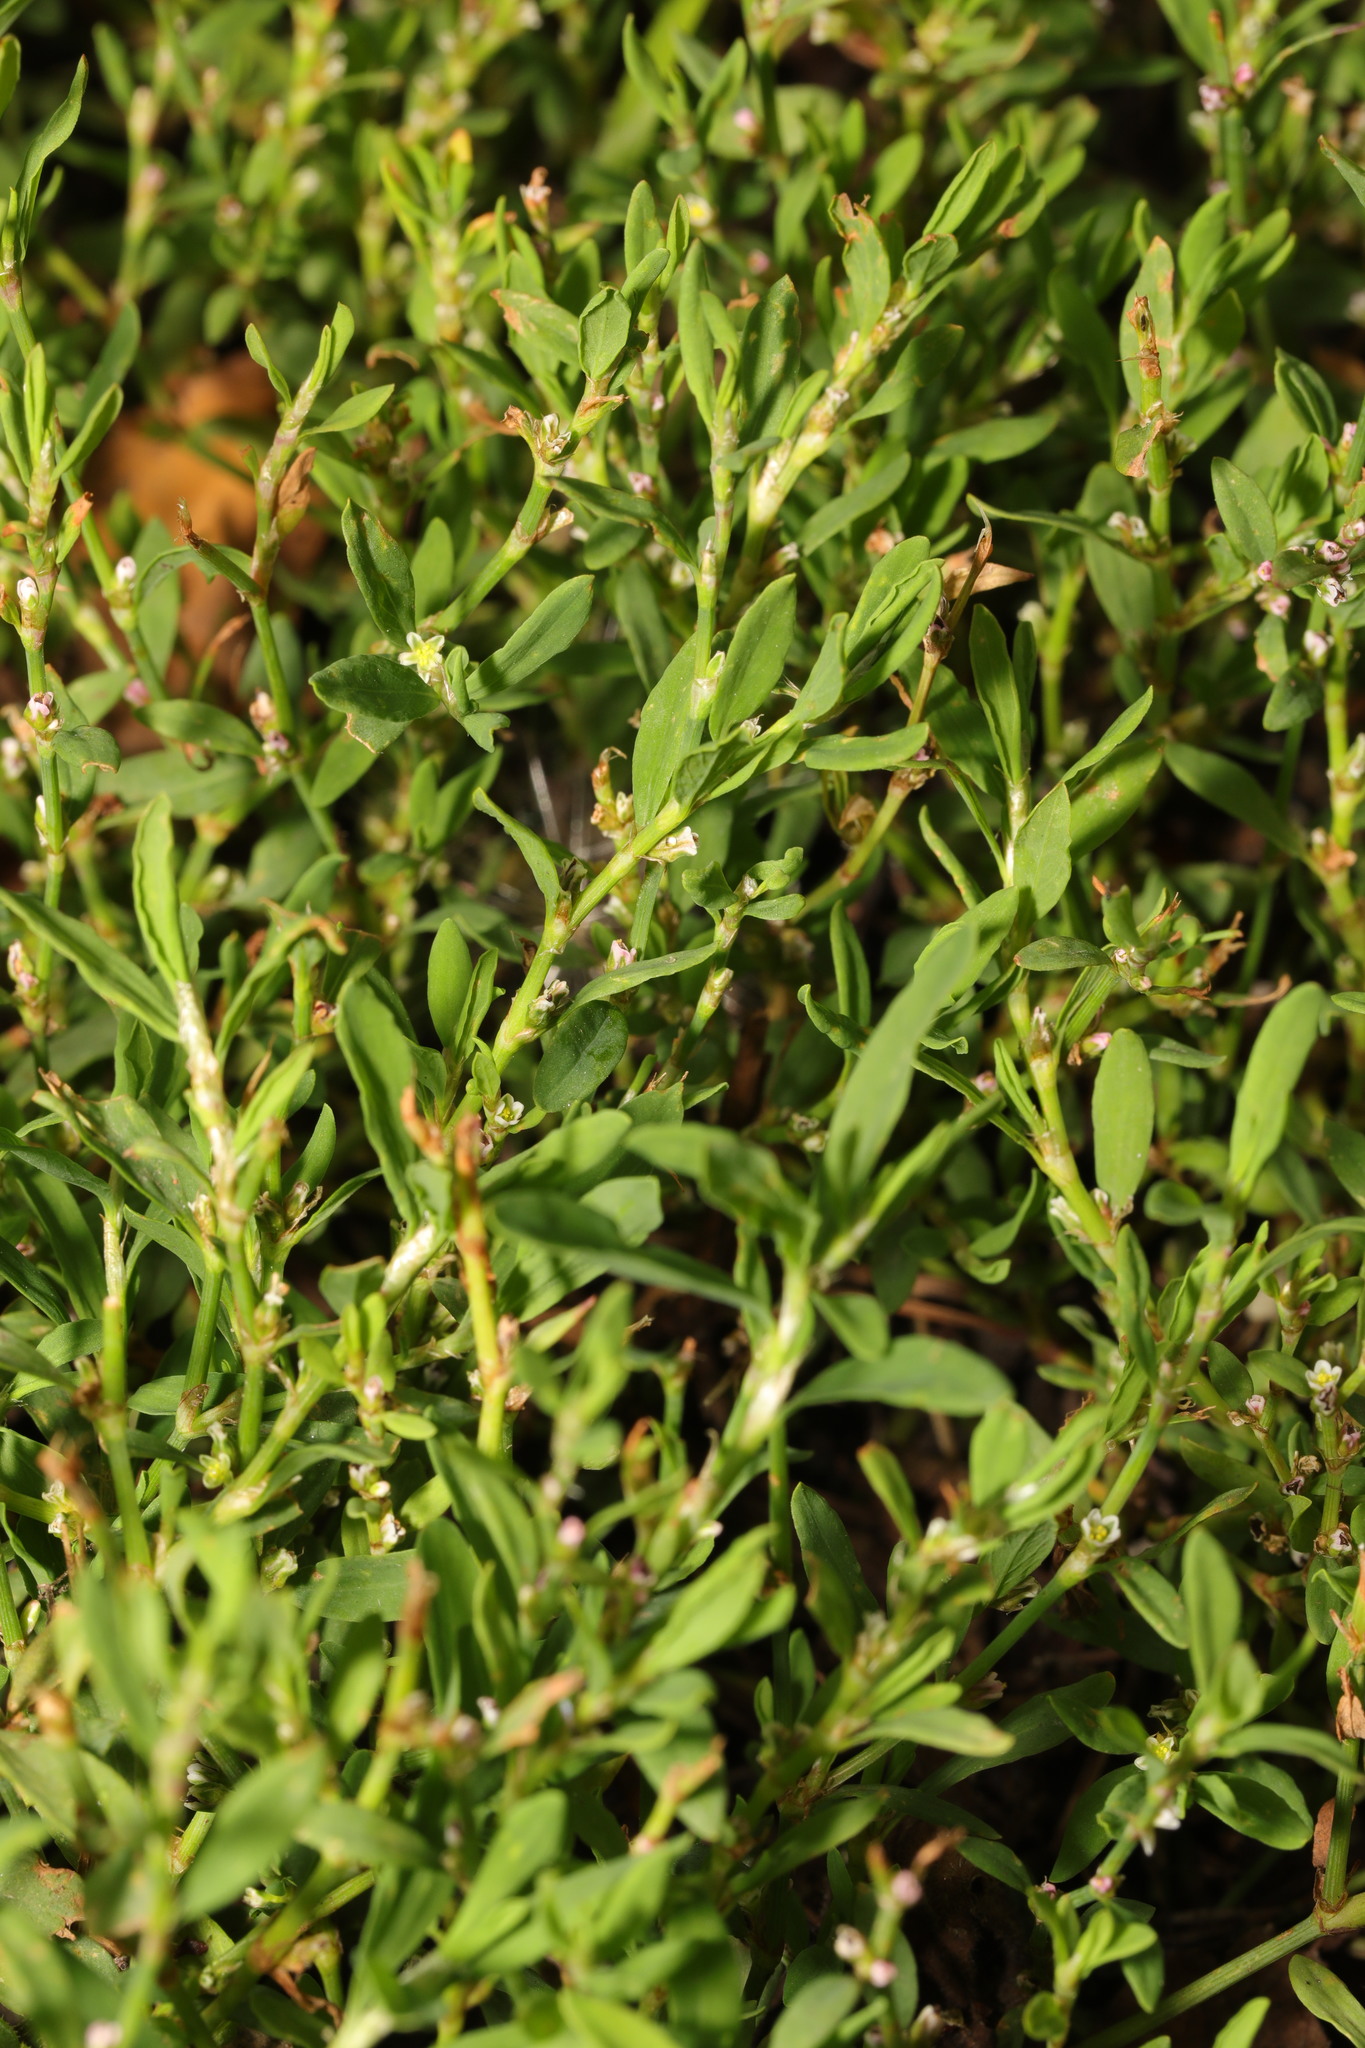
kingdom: Plantae
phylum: Tracheophyta
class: Magnoliopsida
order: Caryophyllales
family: Polygonaceae
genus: Polygonum
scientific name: Polygonum aviculare
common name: Prostrate knotweed
